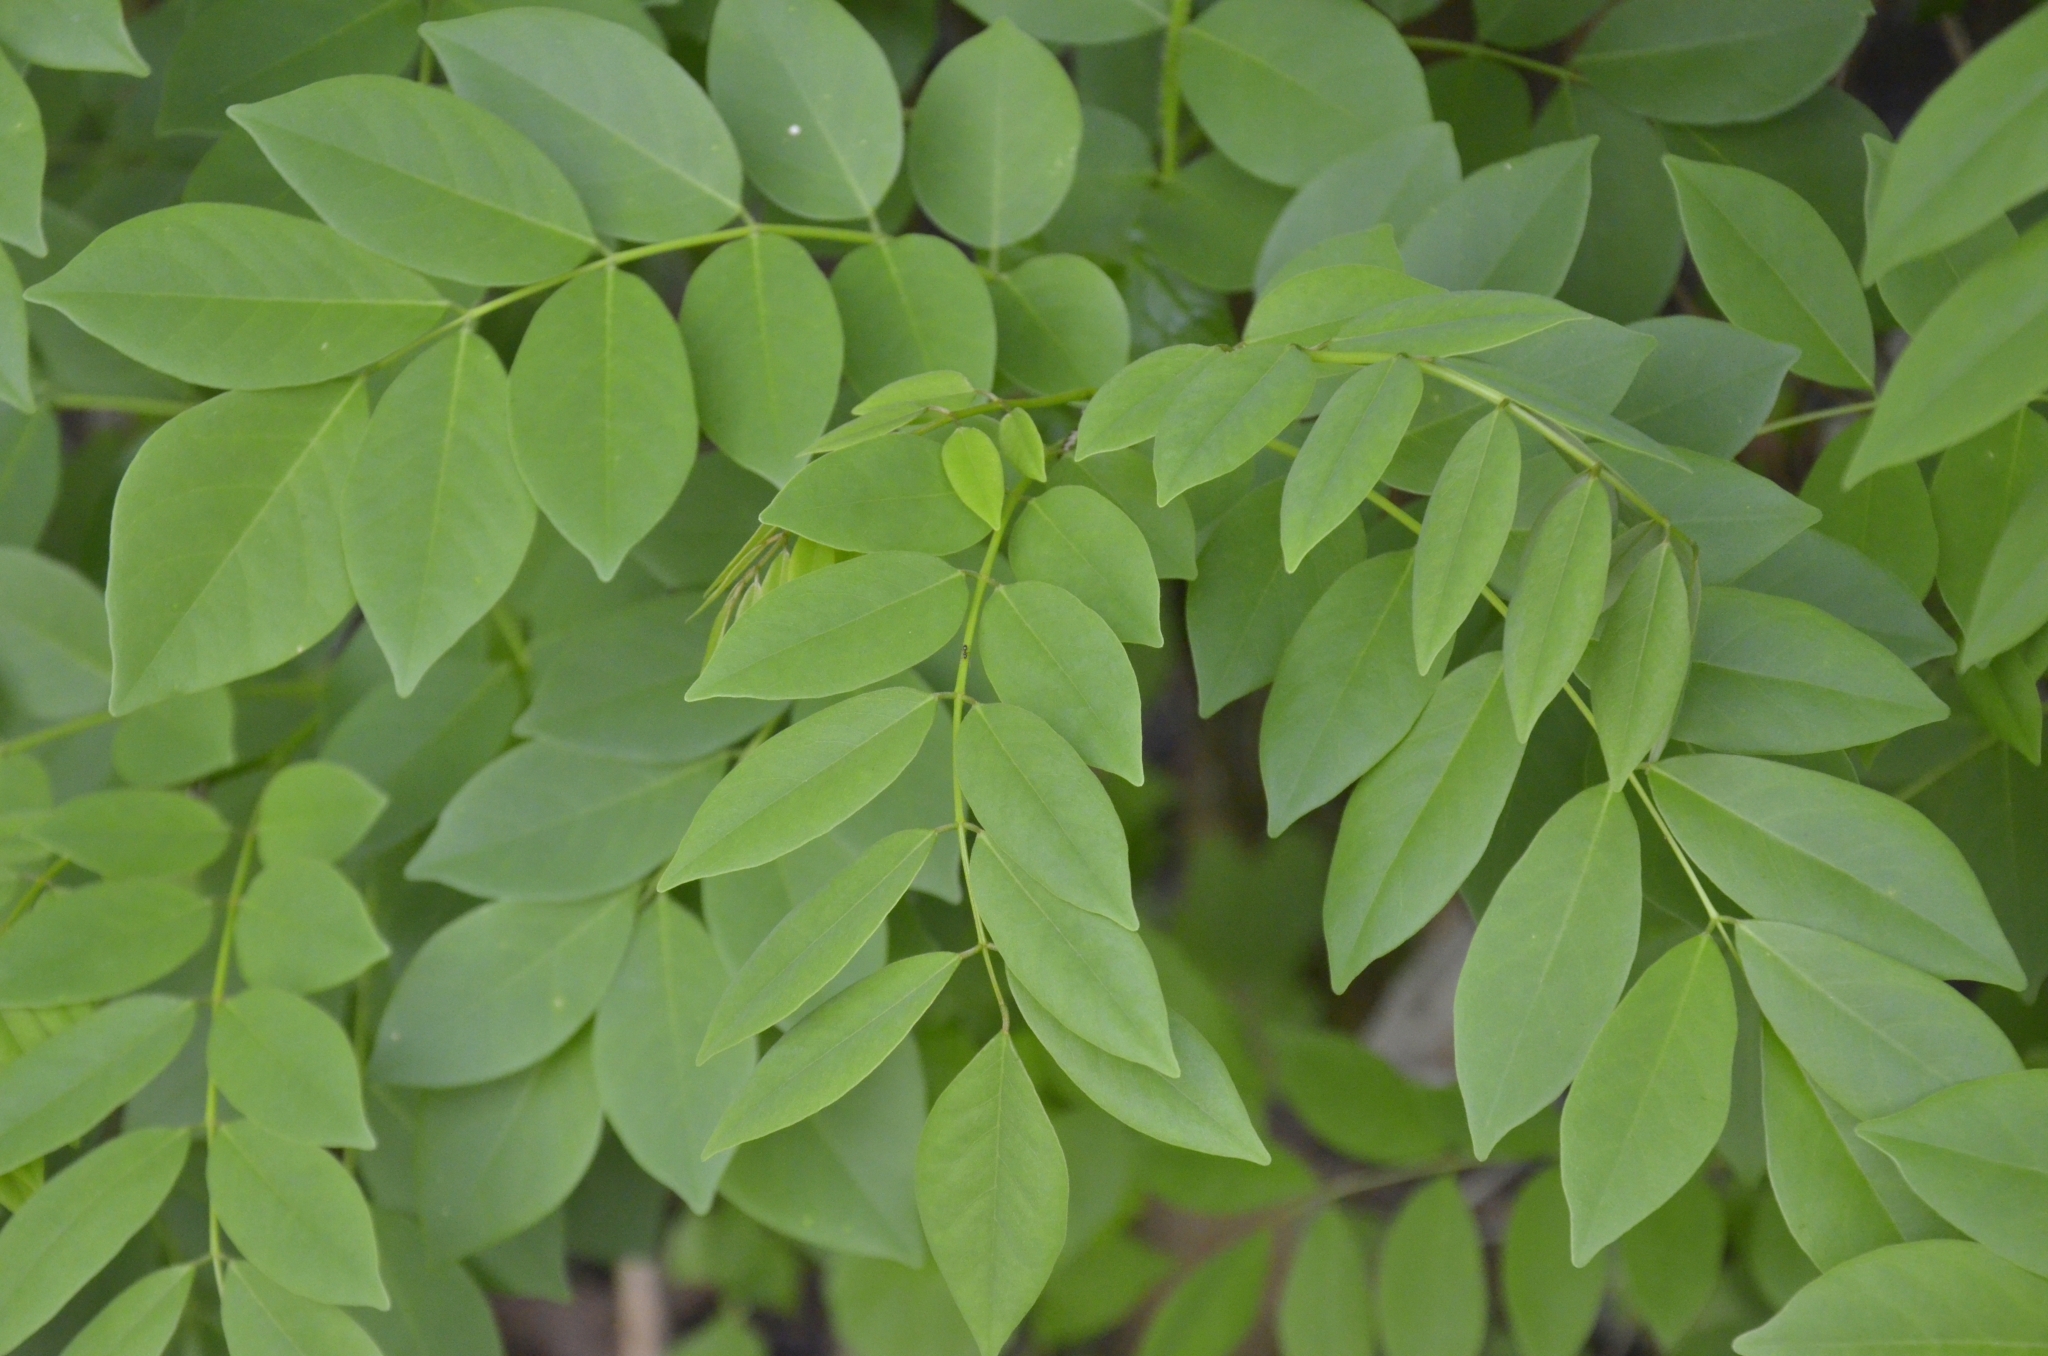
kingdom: Plantae
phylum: Tracheophyta
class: Magnoliopsida
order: Fabales
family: Fabaceae
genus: Gliricidia
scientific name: Gliricidia sepium
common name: Quickstick
